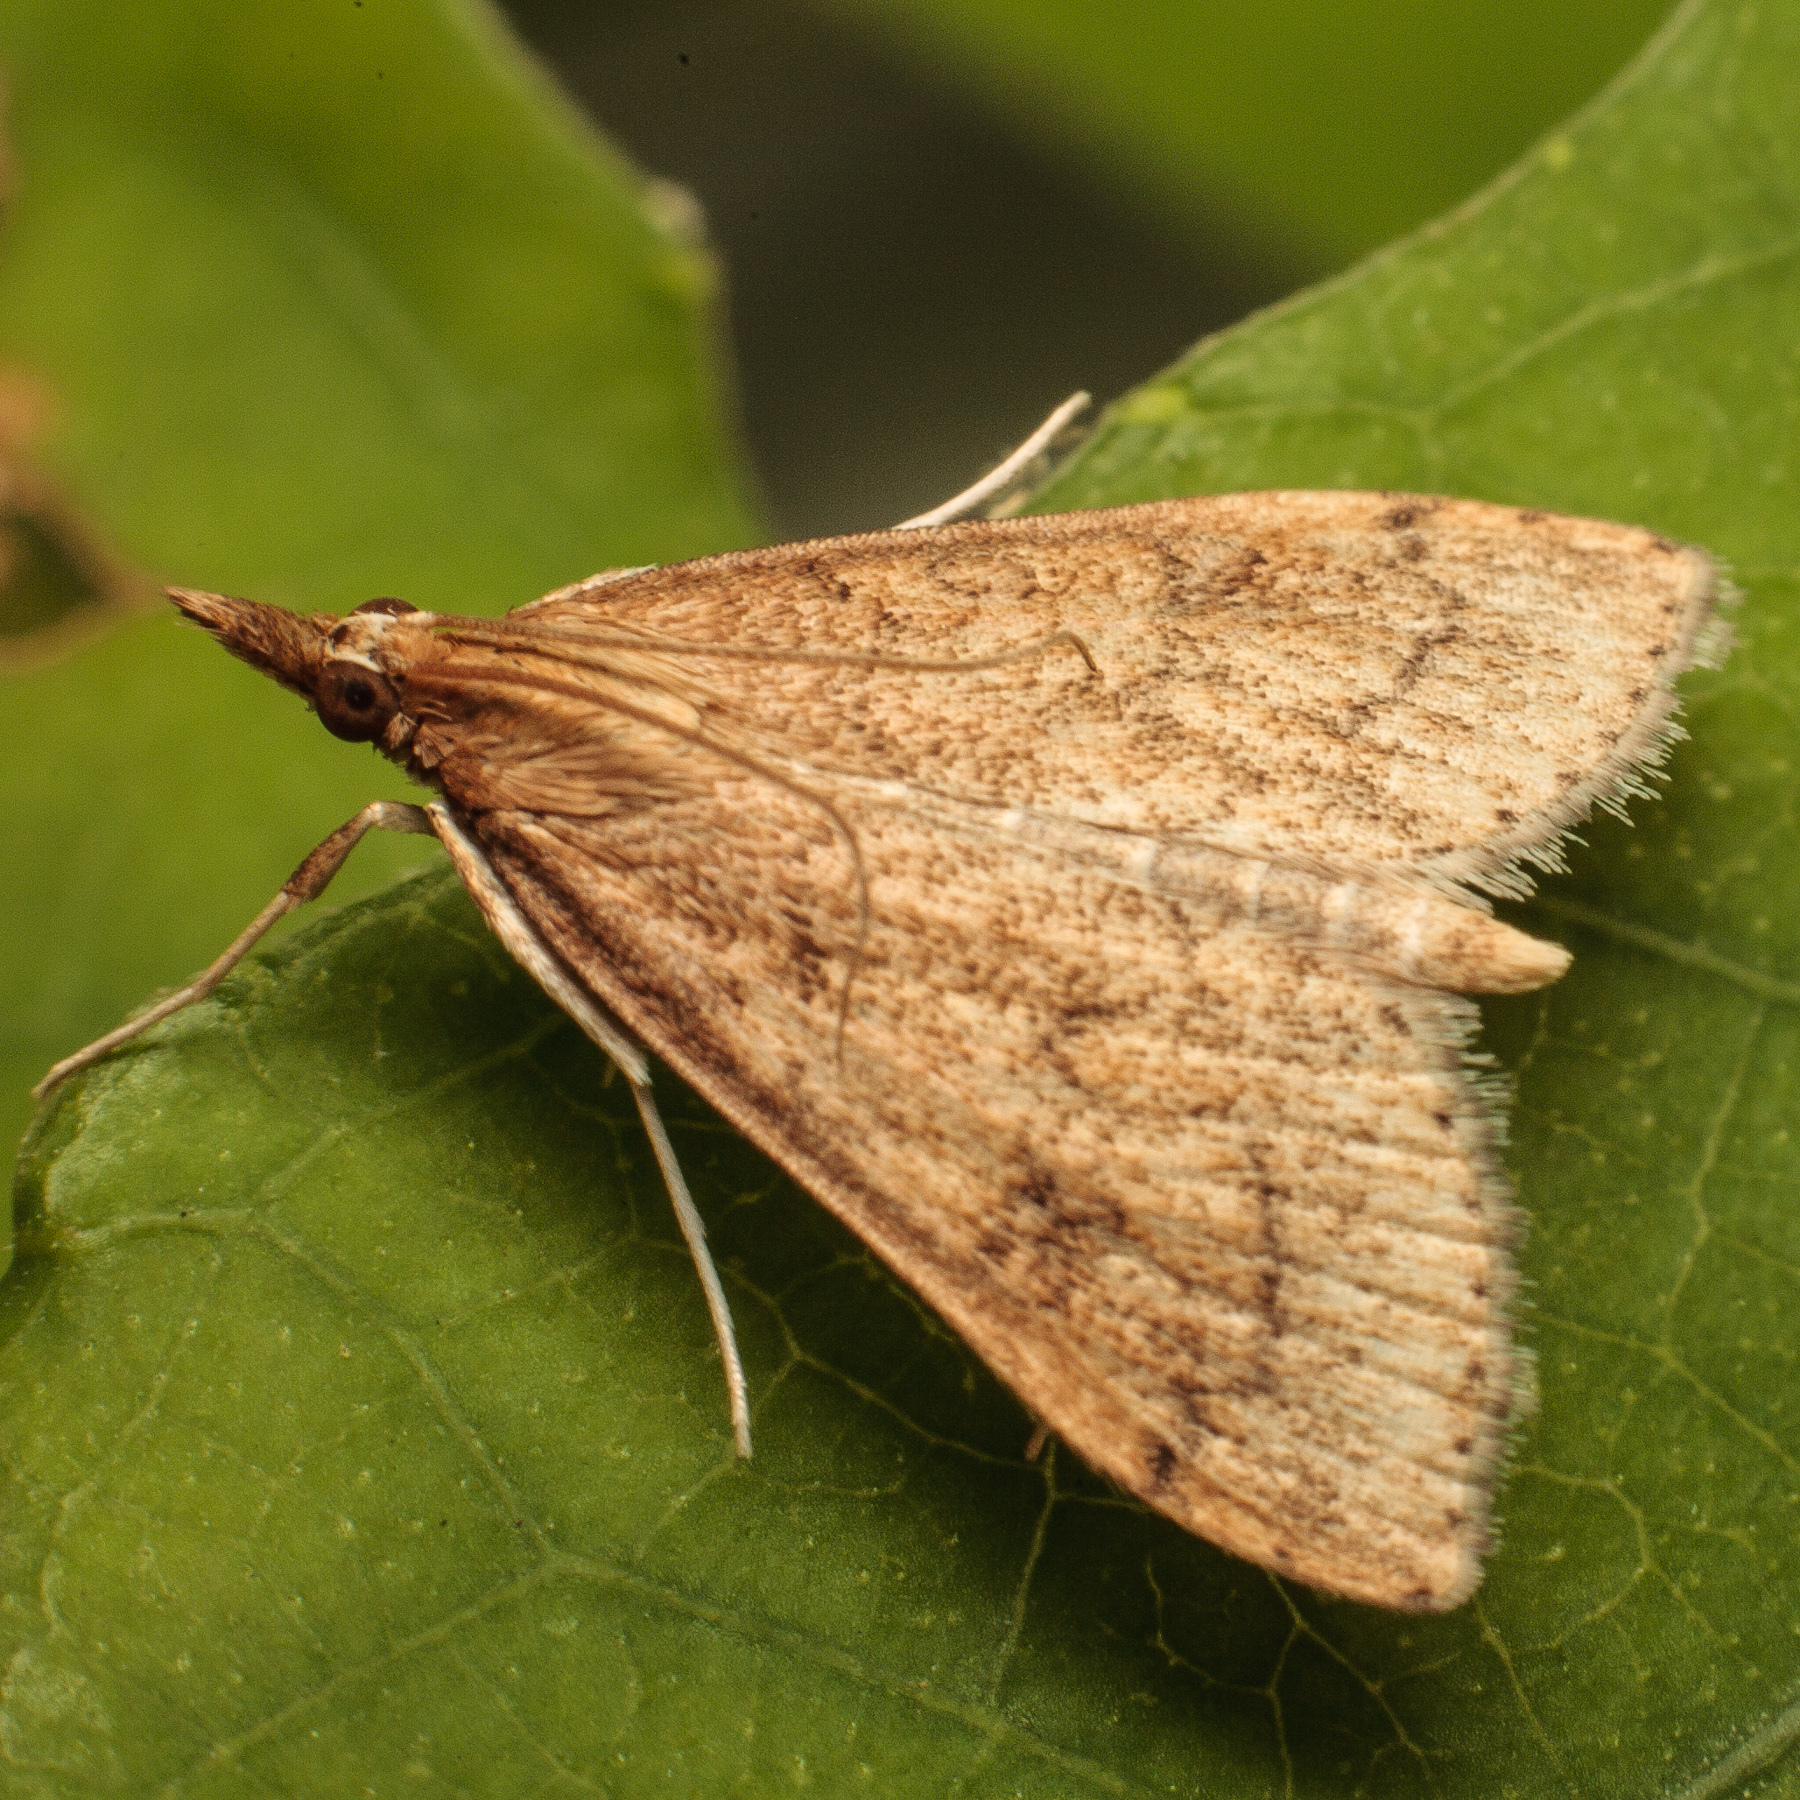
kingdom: Animalia
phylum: Arthropoda
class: Insecta
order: Lepidoptera
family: Crambidae
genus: Udea
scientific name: Udea rubigalis
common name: Celery leaftier moth
